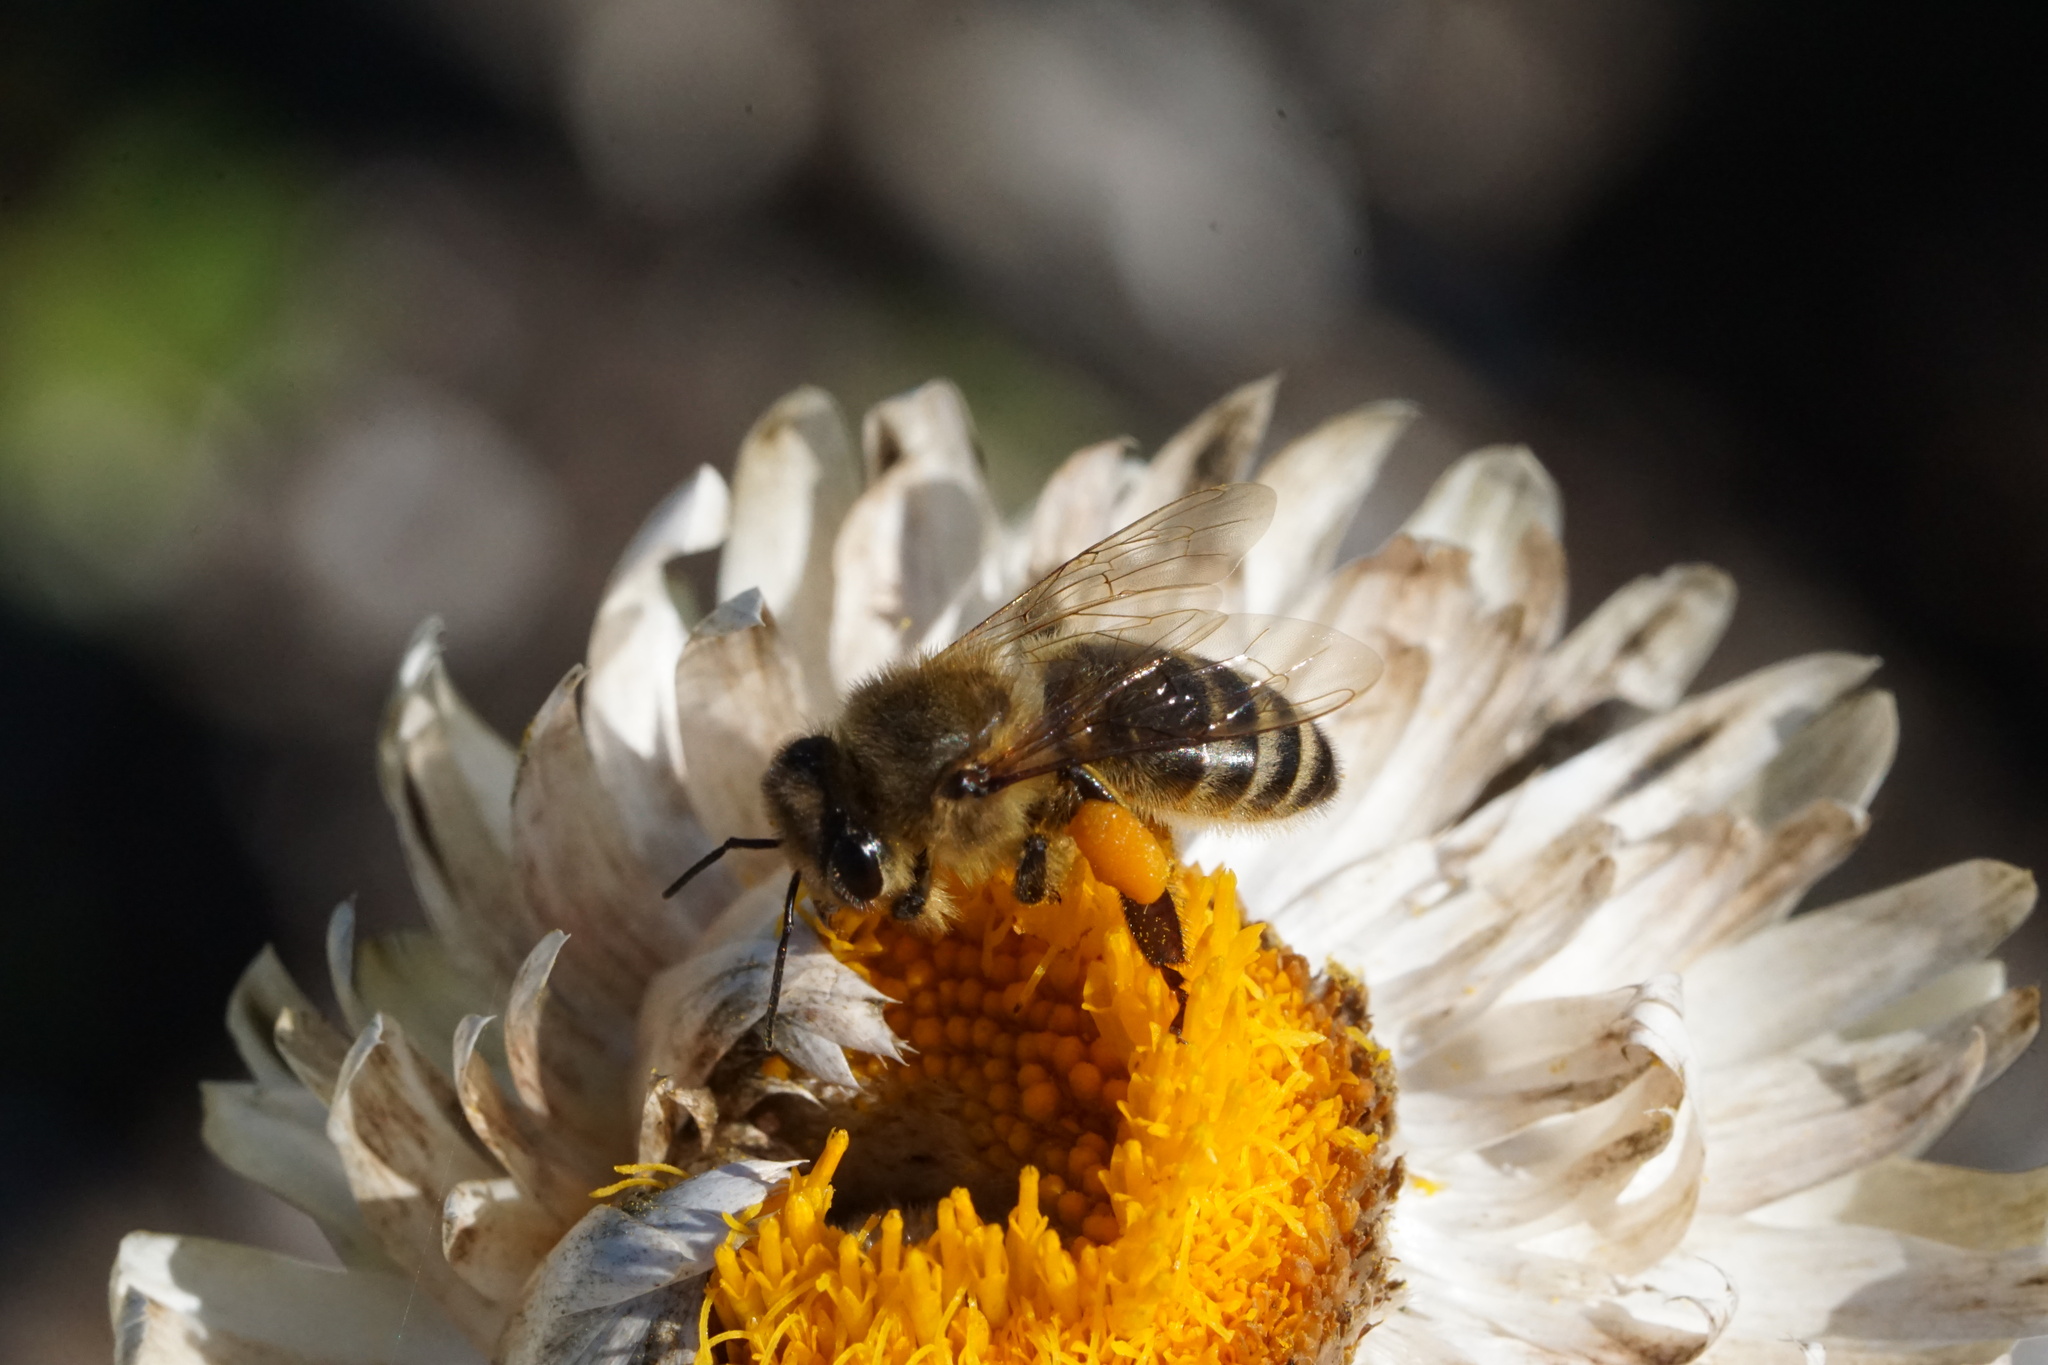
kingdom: Animalia
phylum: Arthropoda
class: Insecta
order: Hymenoptera
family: Apidae
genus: Apis
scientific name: Apis mellifera
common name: Honey bee
